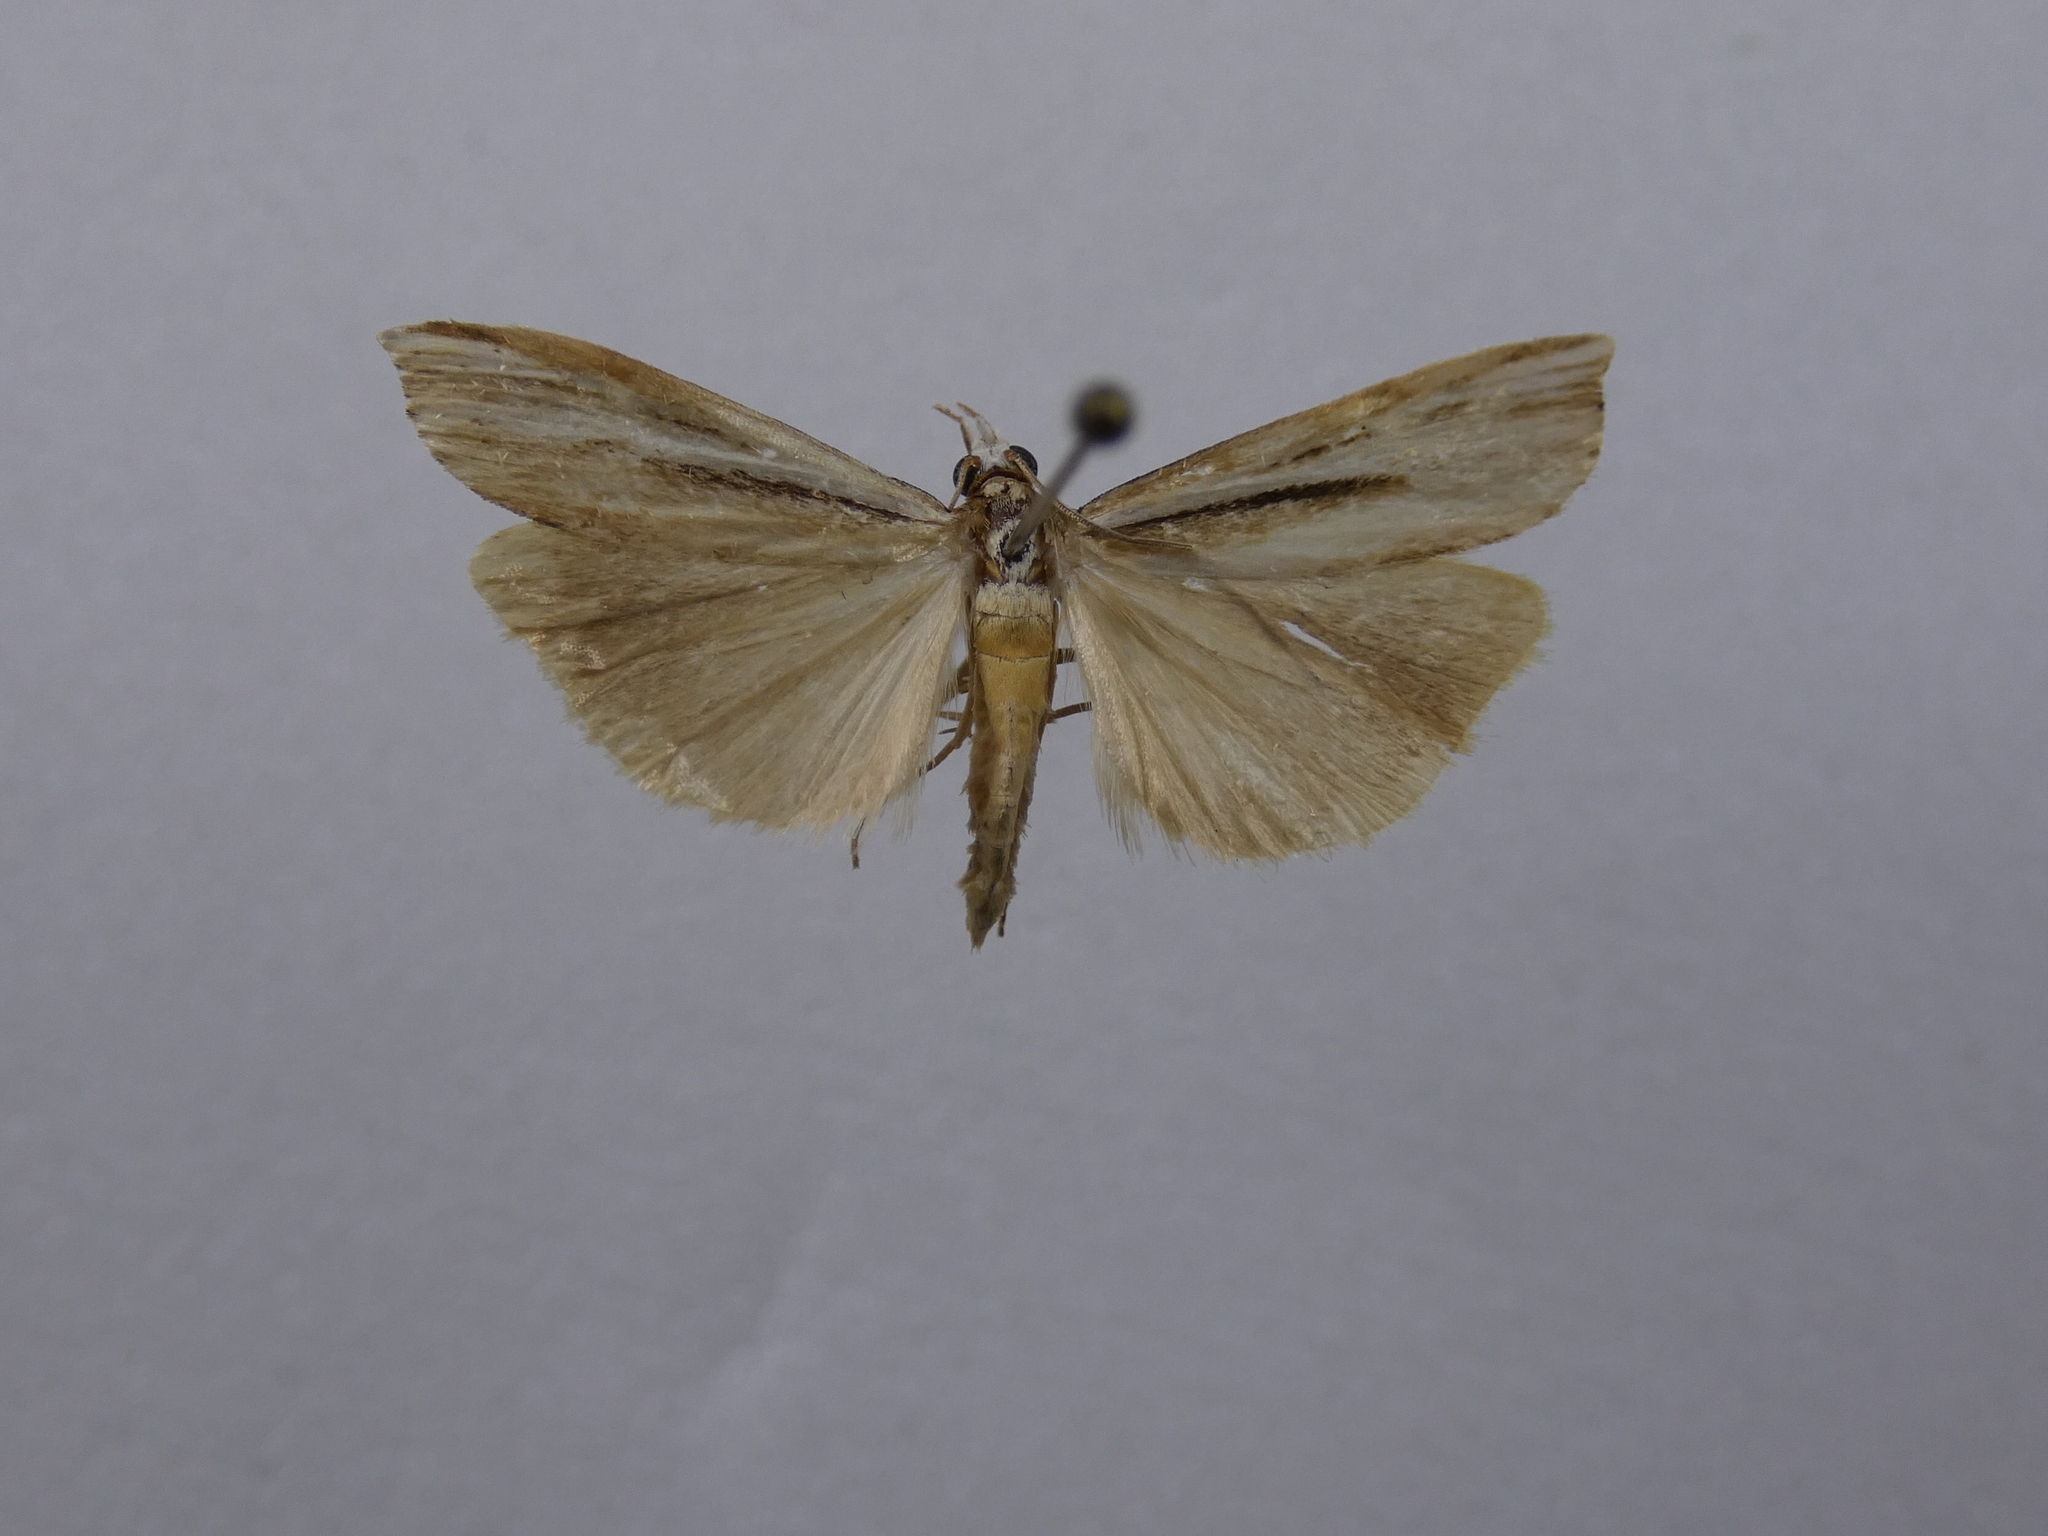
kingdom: Animalia
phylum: Arthropoda
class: Insecta
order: Lepidoptera
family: Crambidae
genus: Orocrambus
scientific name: Orocrambus ramosellus
